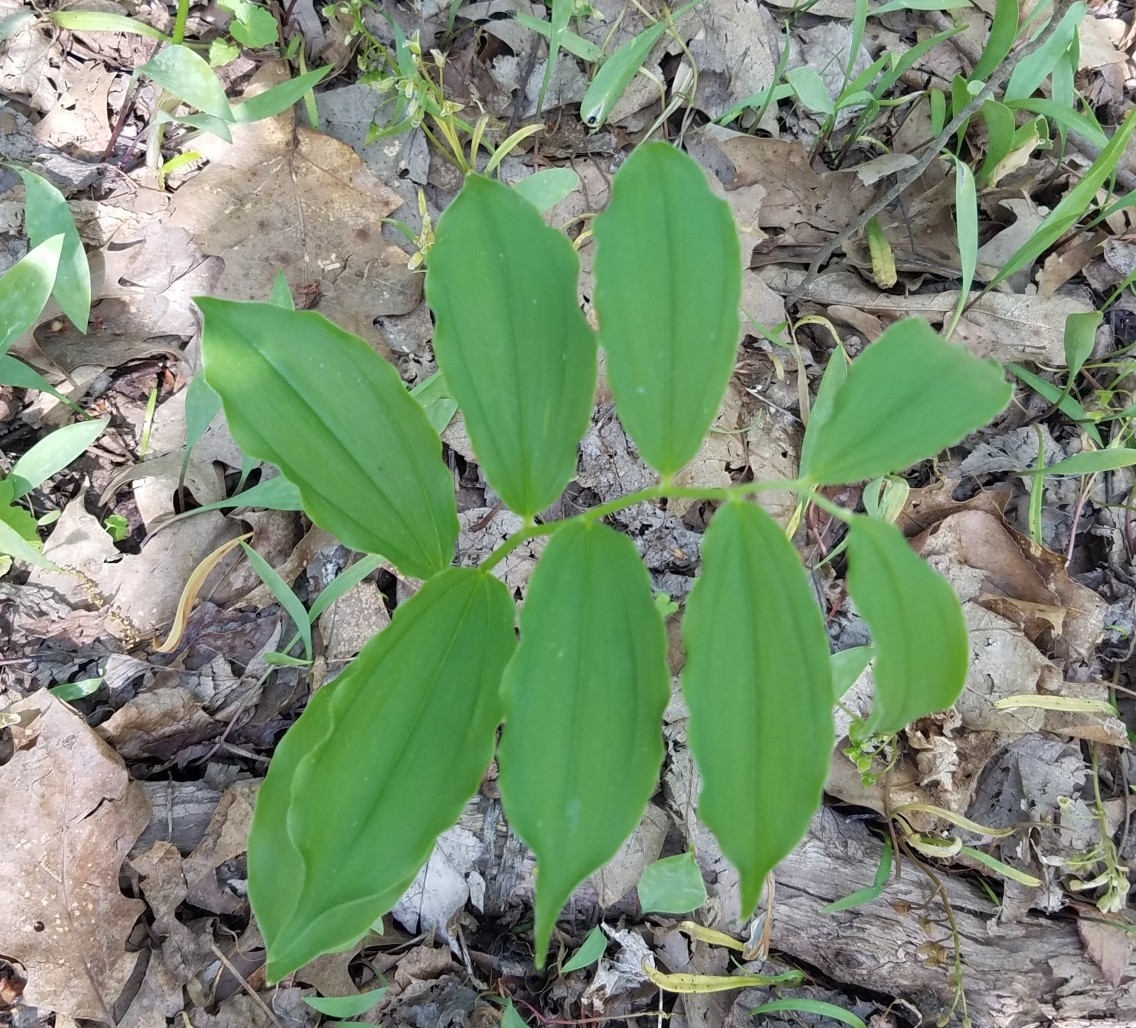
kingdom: Plantae
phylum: Tracheophyta
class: Liliopsida
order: Asparagales
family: Asparagaceae
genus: Maianthemum
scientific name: Maianthemum racemosum
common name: False spikenard
